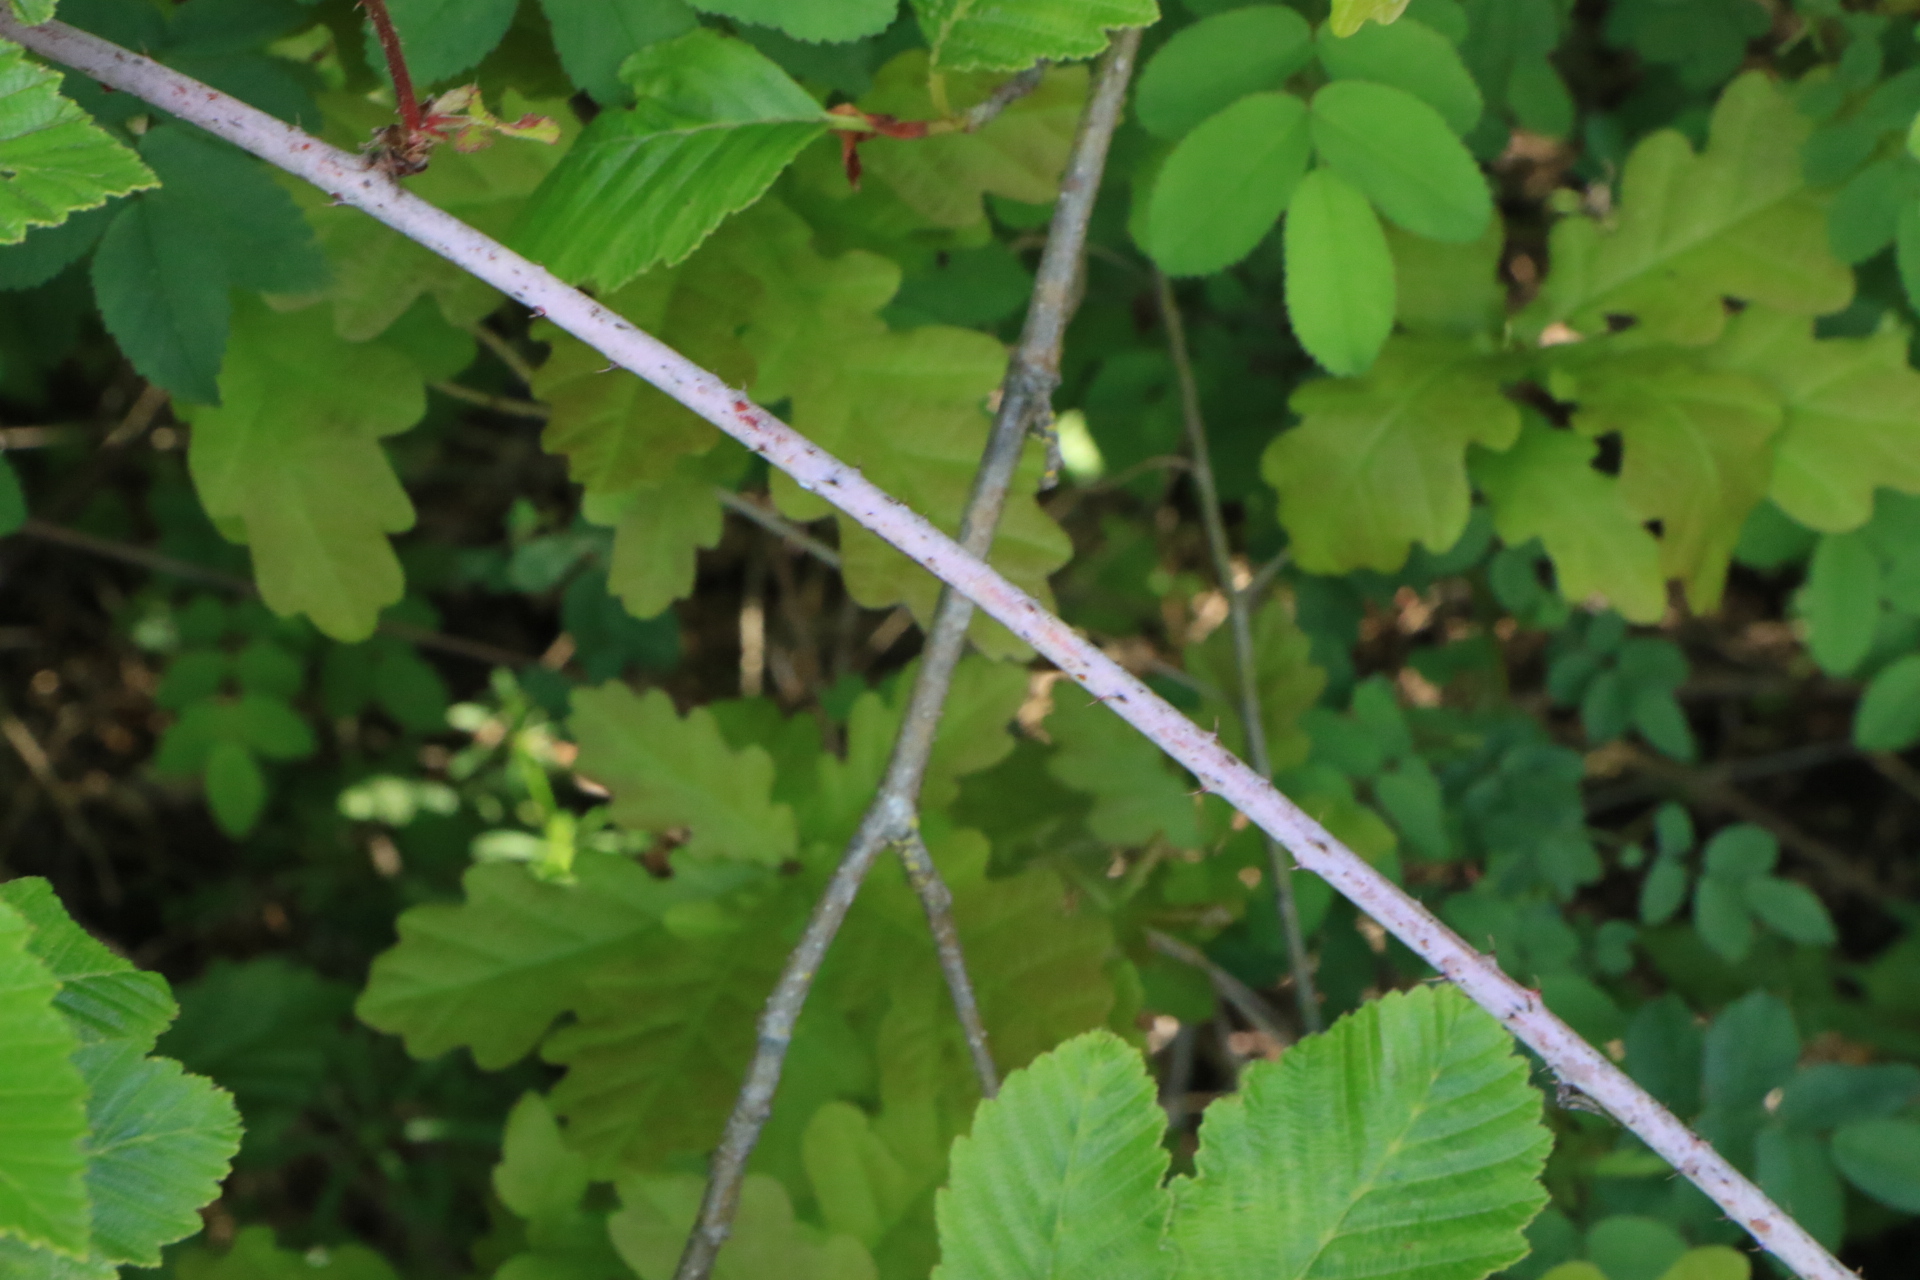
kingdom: Plantae
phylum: Tracheophyta
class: Magnoliopsida
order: Rosales
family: Rosaceae
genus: Rubus
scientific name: Rubus ursinus
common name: Pacific blackberry
